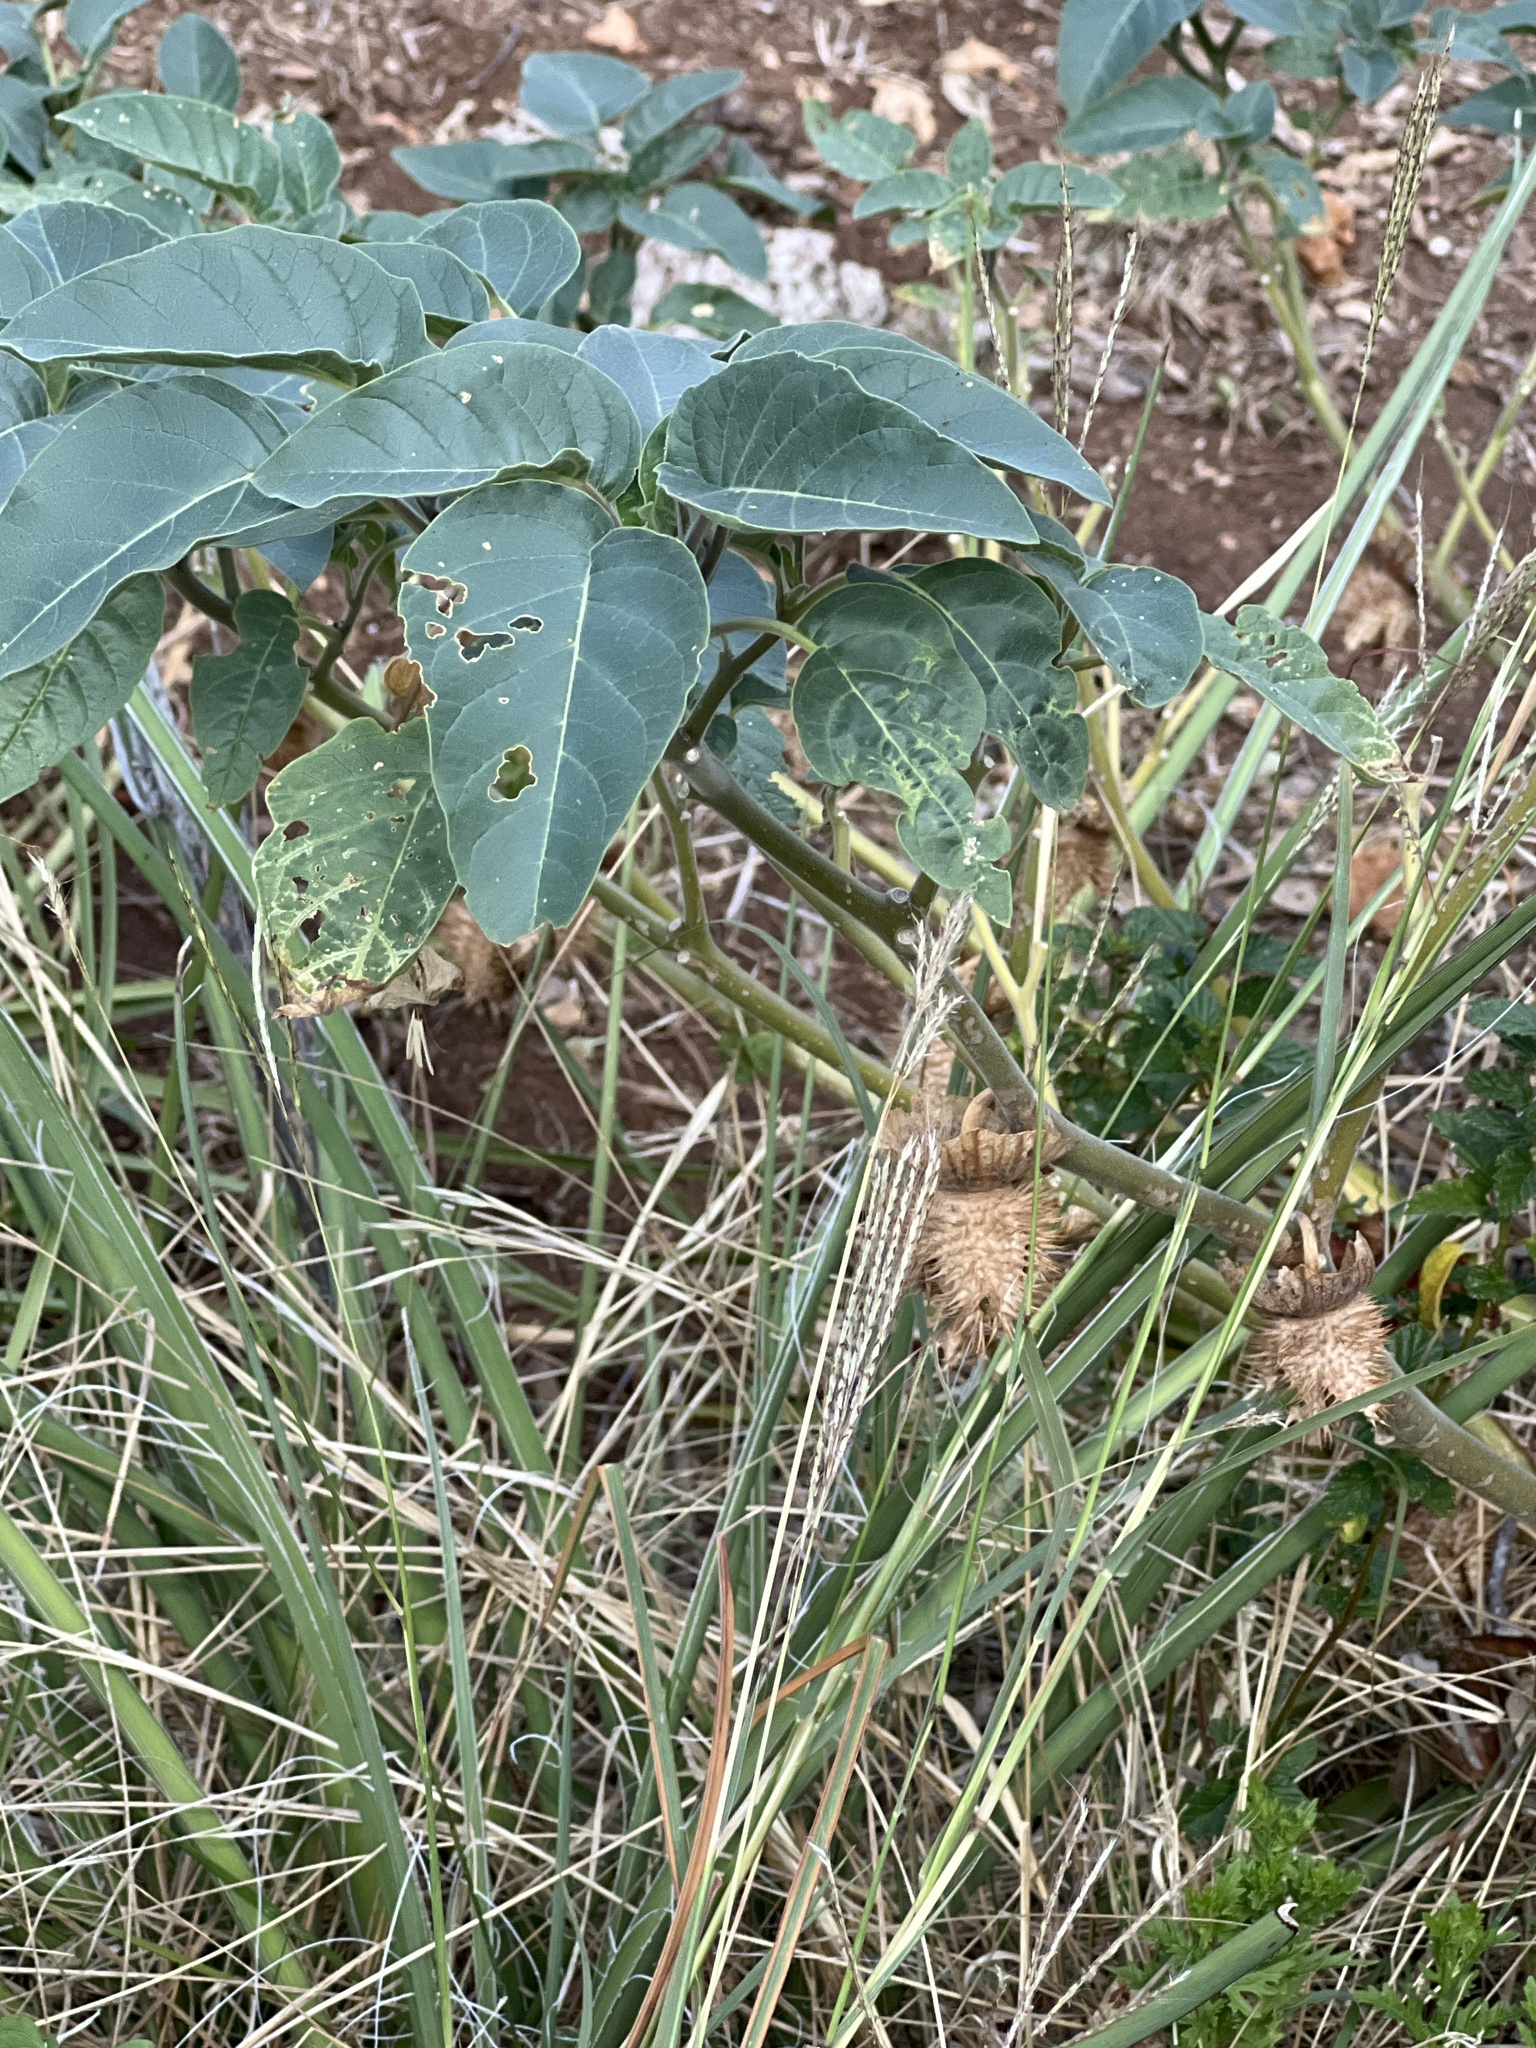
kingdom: Plantae
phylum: Tracheophyta
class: Magnoliopsida
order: Solanales
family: Solanaceae
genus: Datura
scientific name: Datura innoxia
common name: Downy thorn-apple
